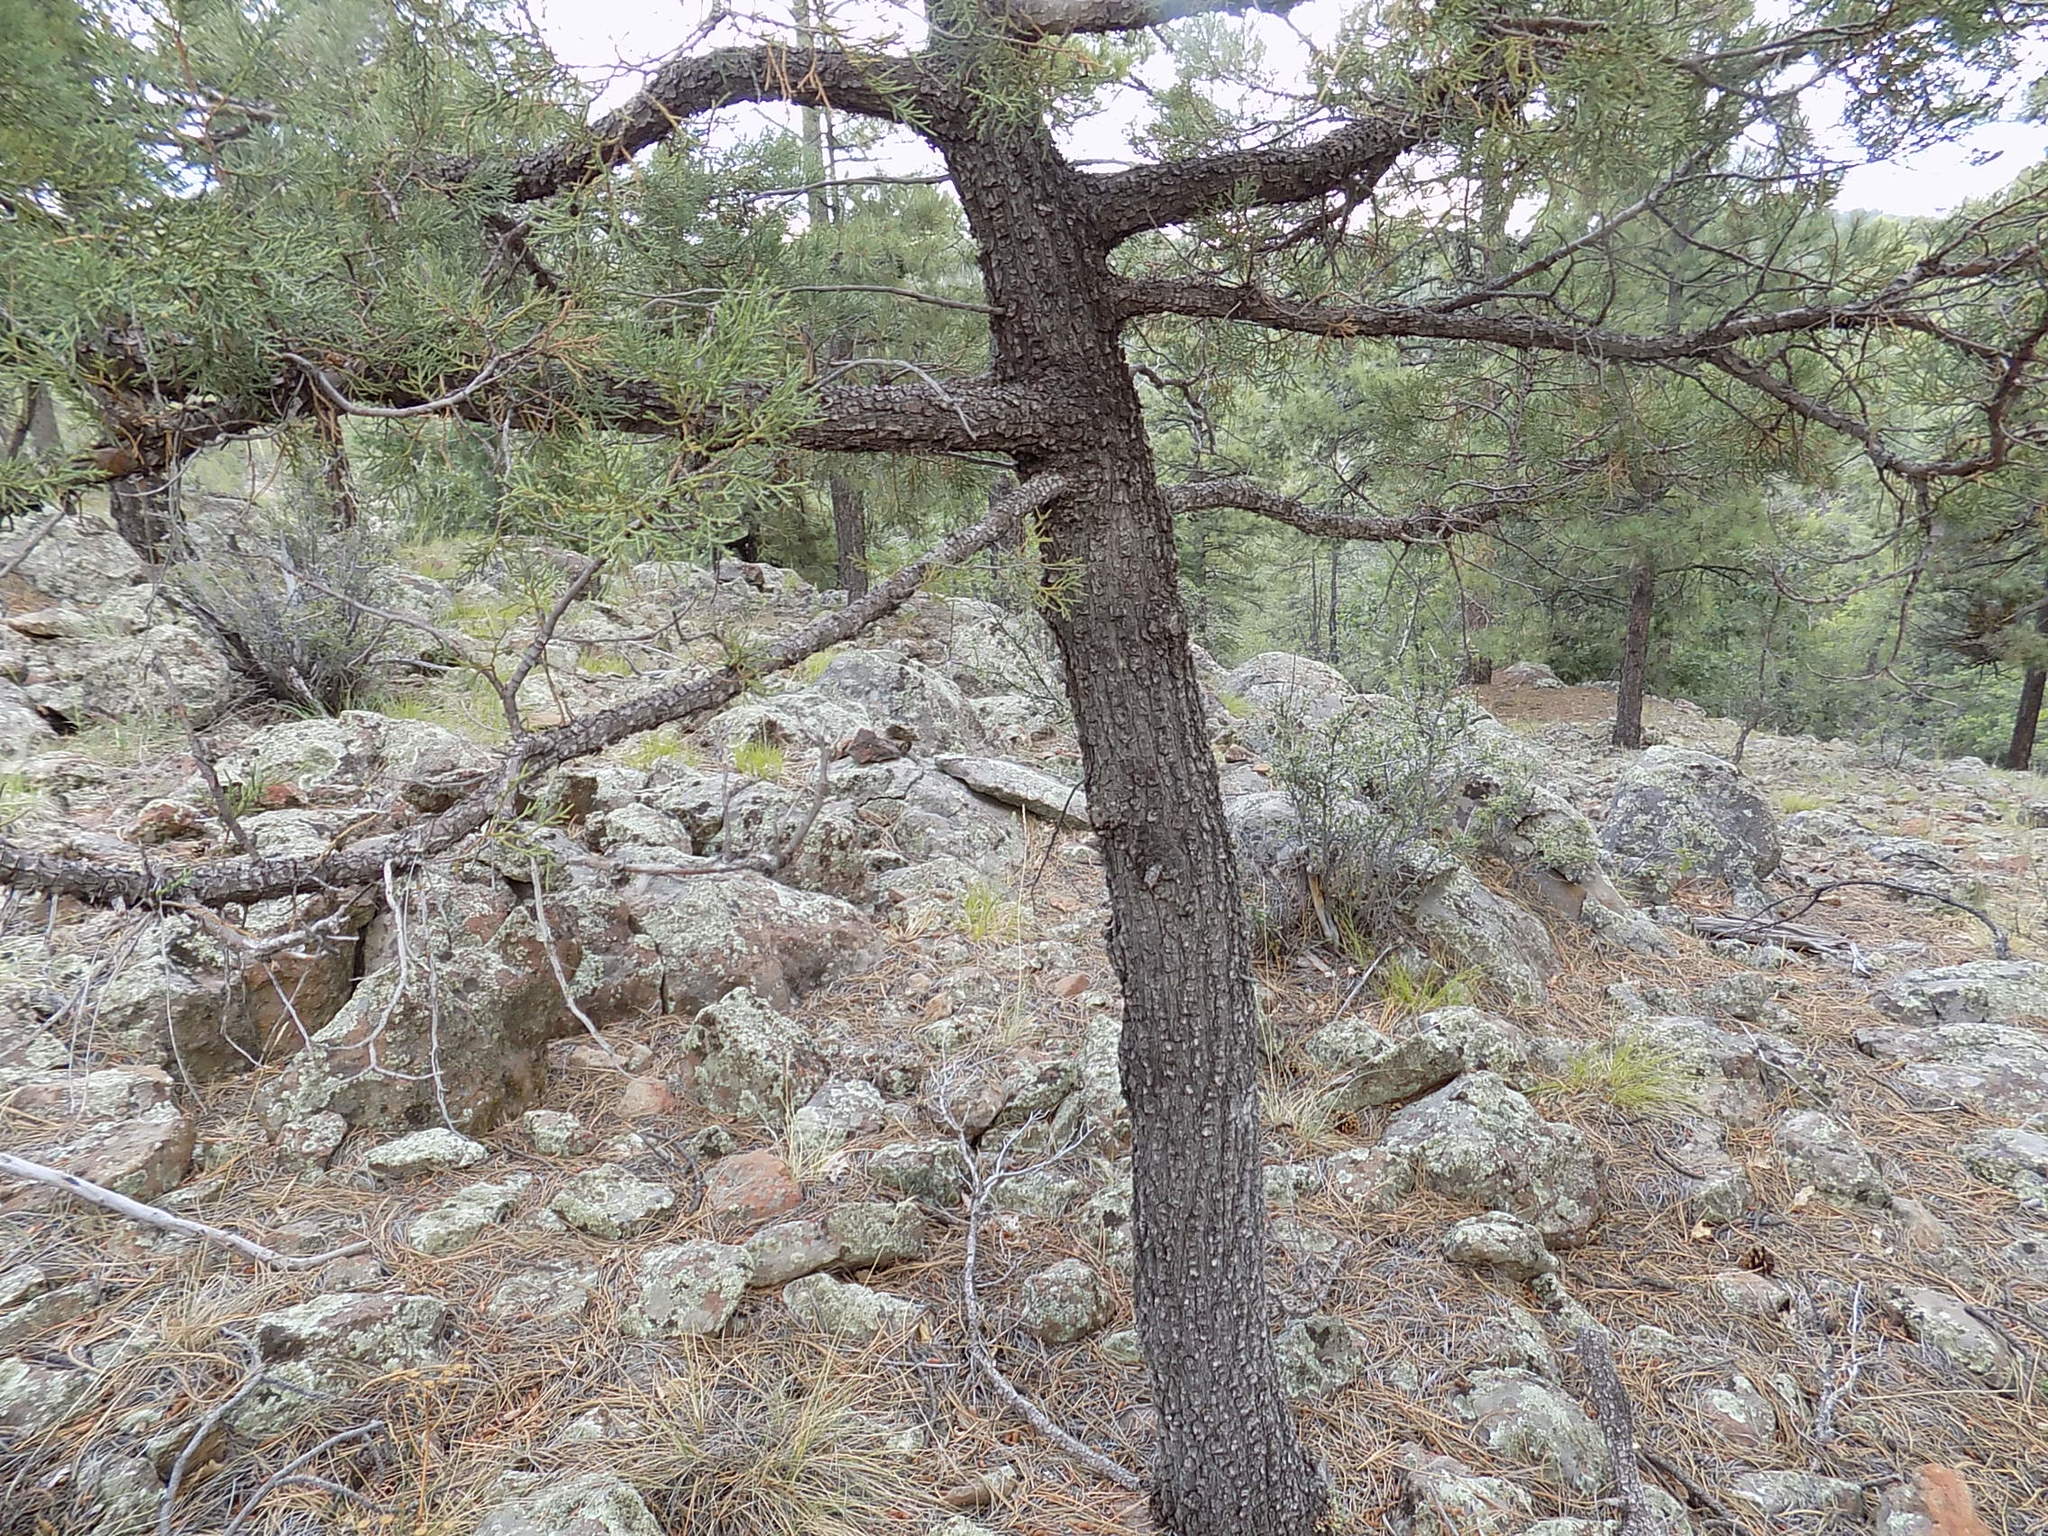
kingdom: Plantae
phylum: Tracheophyta
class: Pinopsida
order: Pinales
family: Cupressaceae
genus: Juniperus
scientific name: Juniperus deppeana
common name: Alligator juniper
